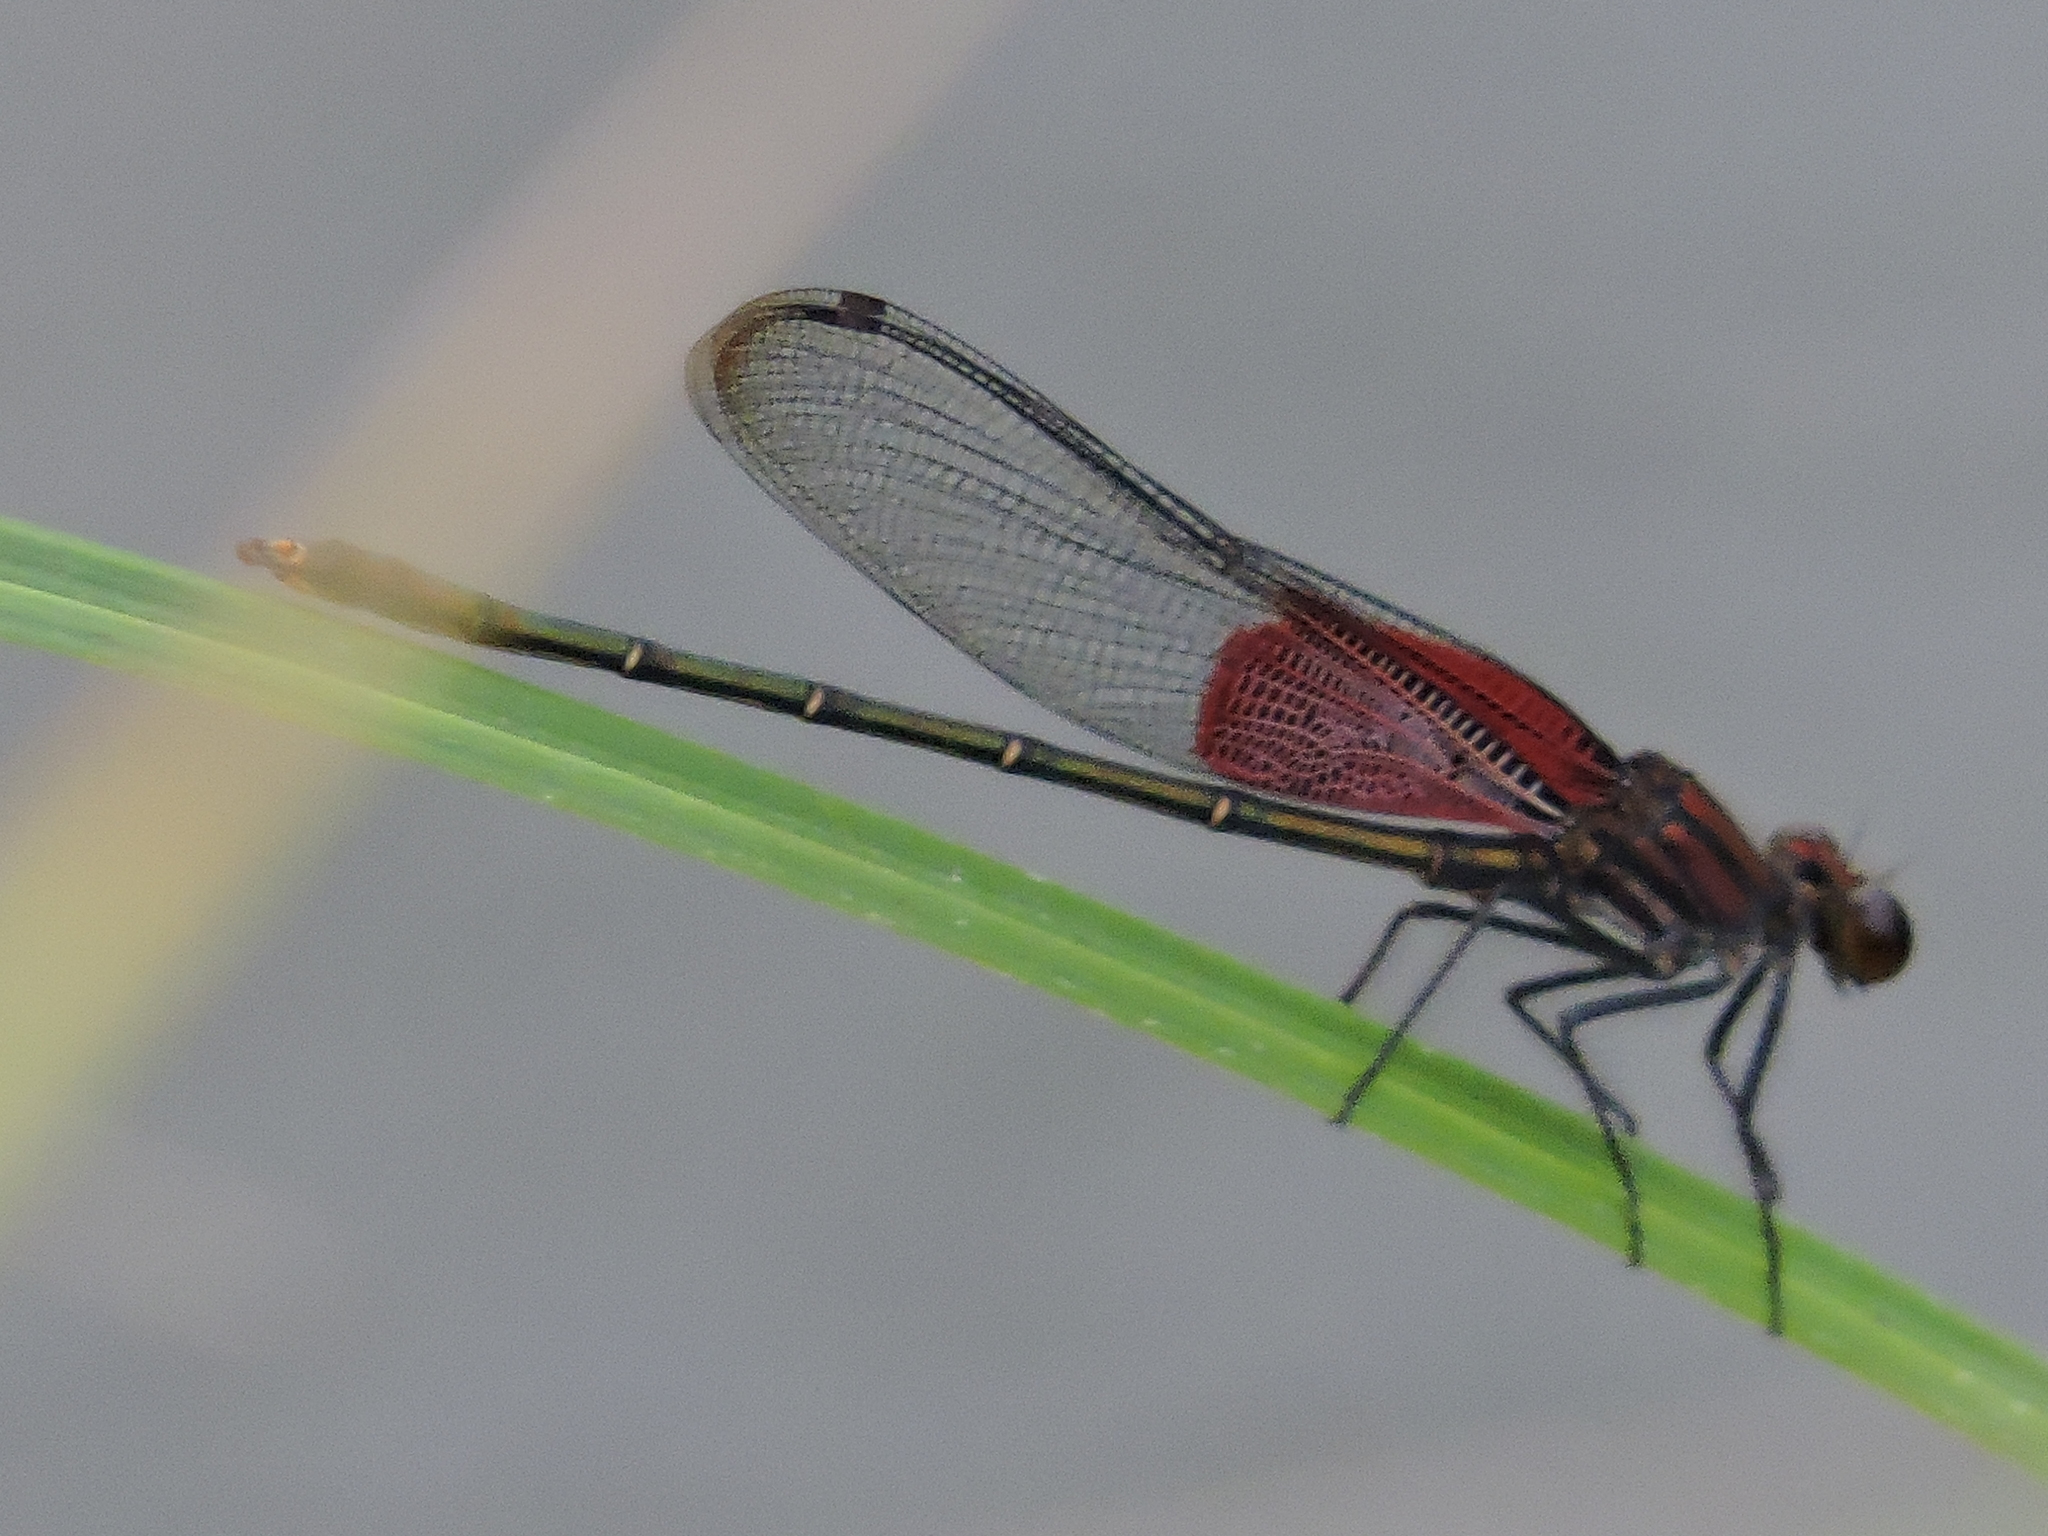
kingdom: Animalia
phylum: Arthropoda
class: Insecta
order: Odonata
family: Calopterygidae
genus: Hetaerina
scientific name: Hetaerina americana
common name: American rubyspot
